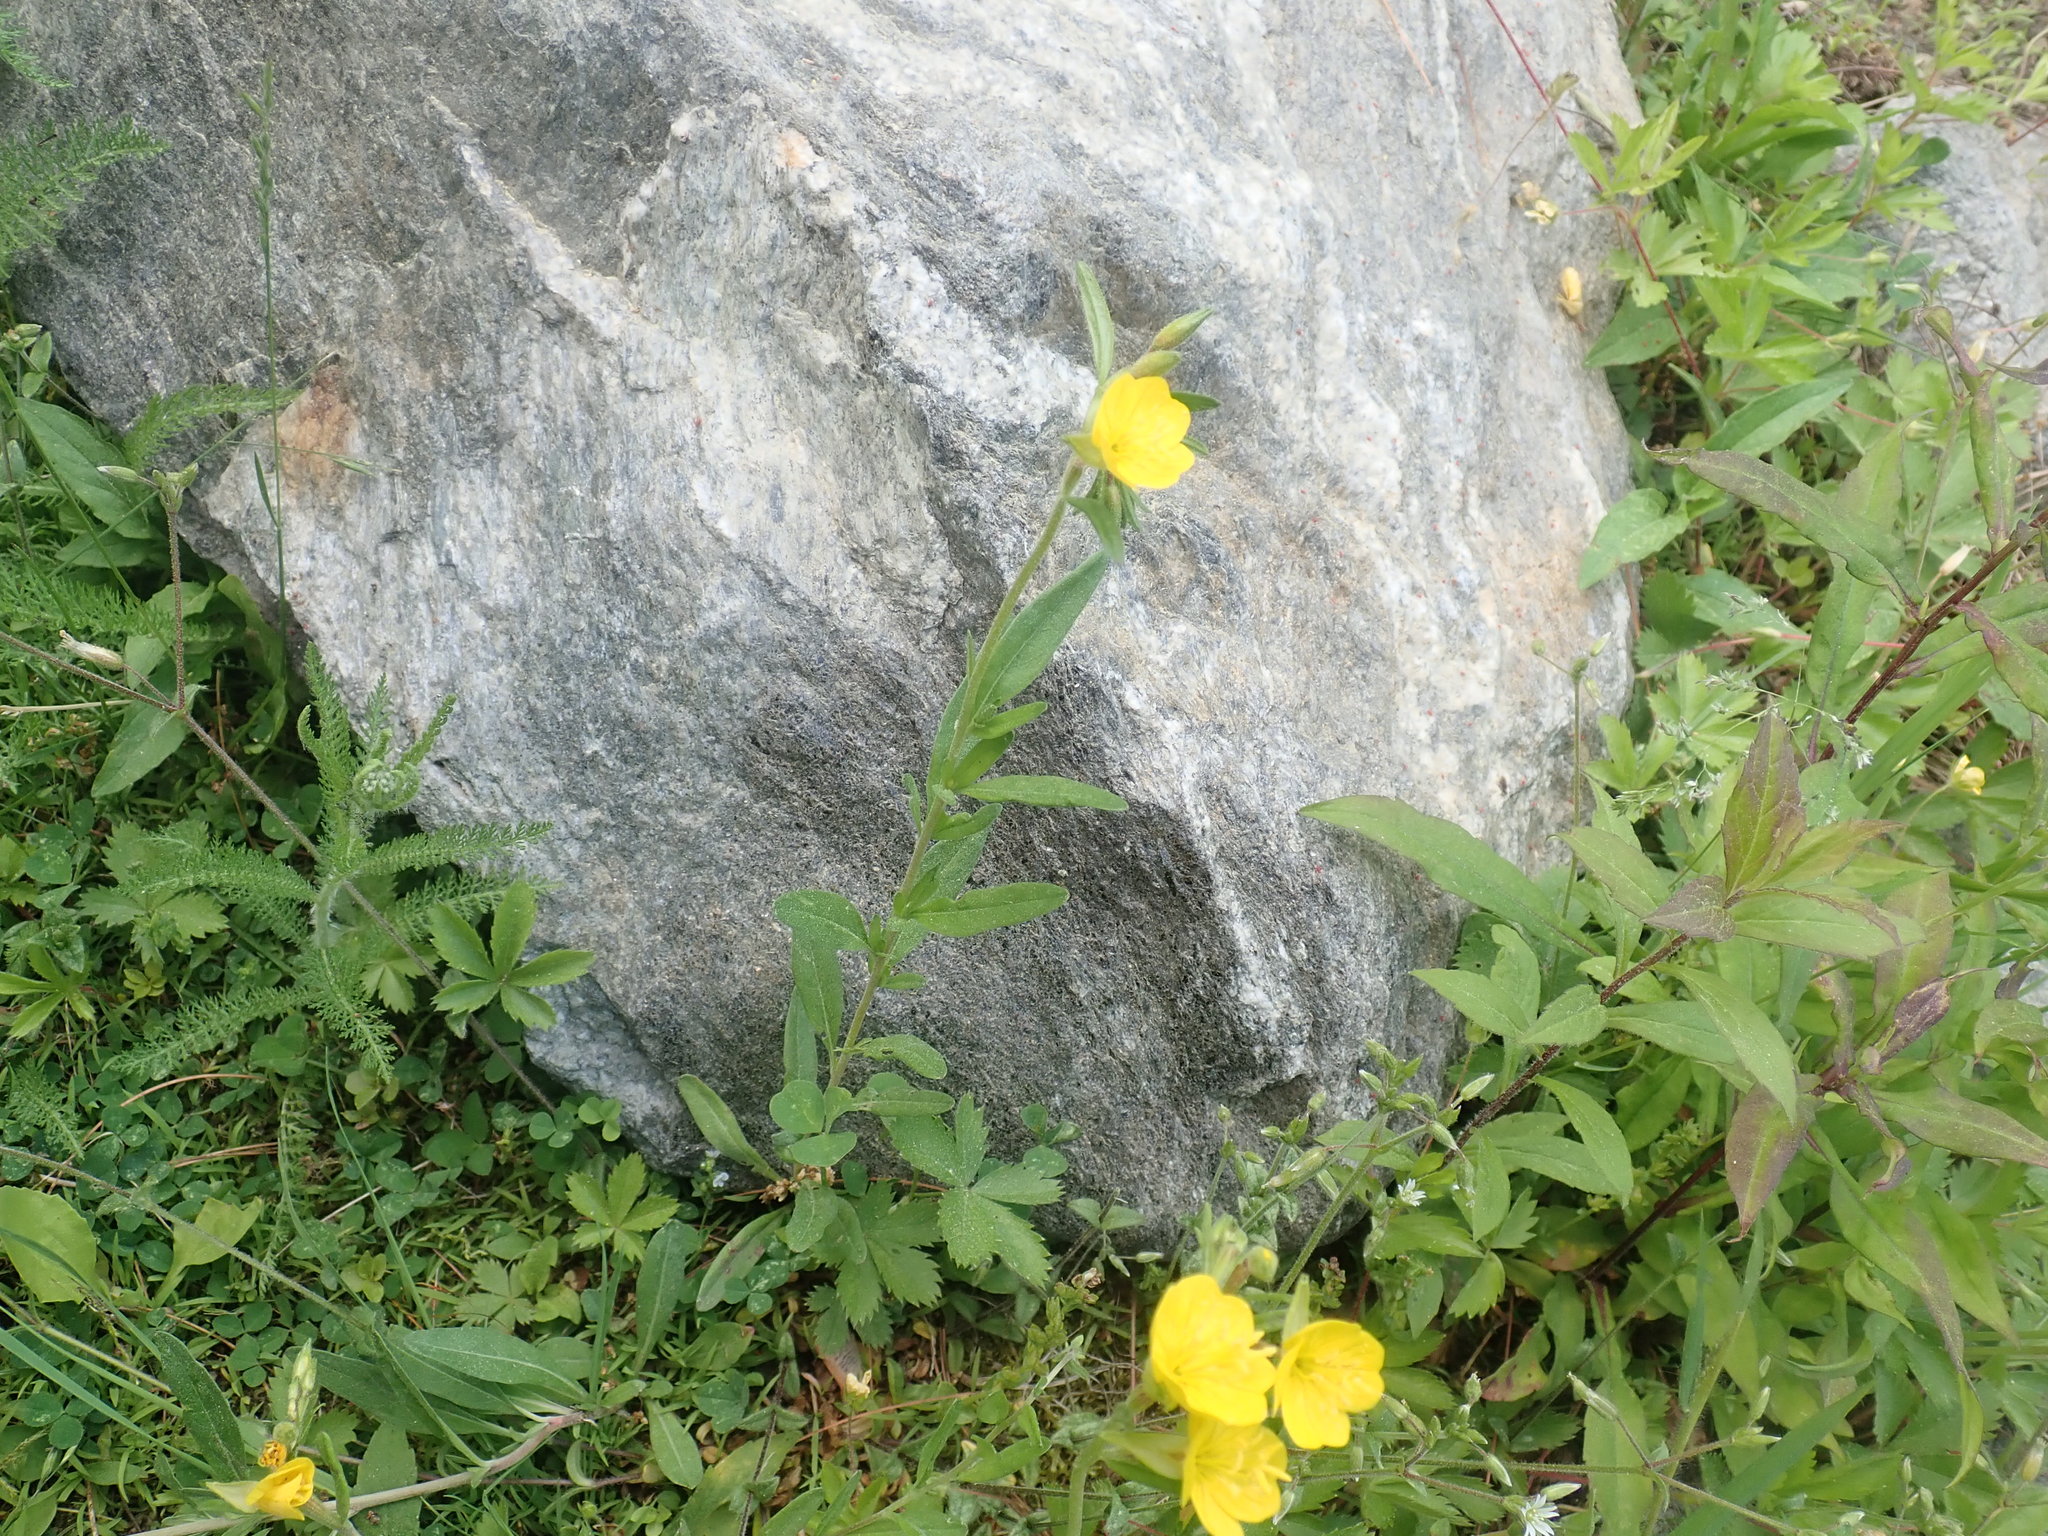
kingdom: Plantae
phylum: Tracheophyta
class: Magnoliopsida
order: Myrtales
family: Onagraceae
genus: Oenothera
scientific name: Oenothera perennis
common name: Small sundrops
